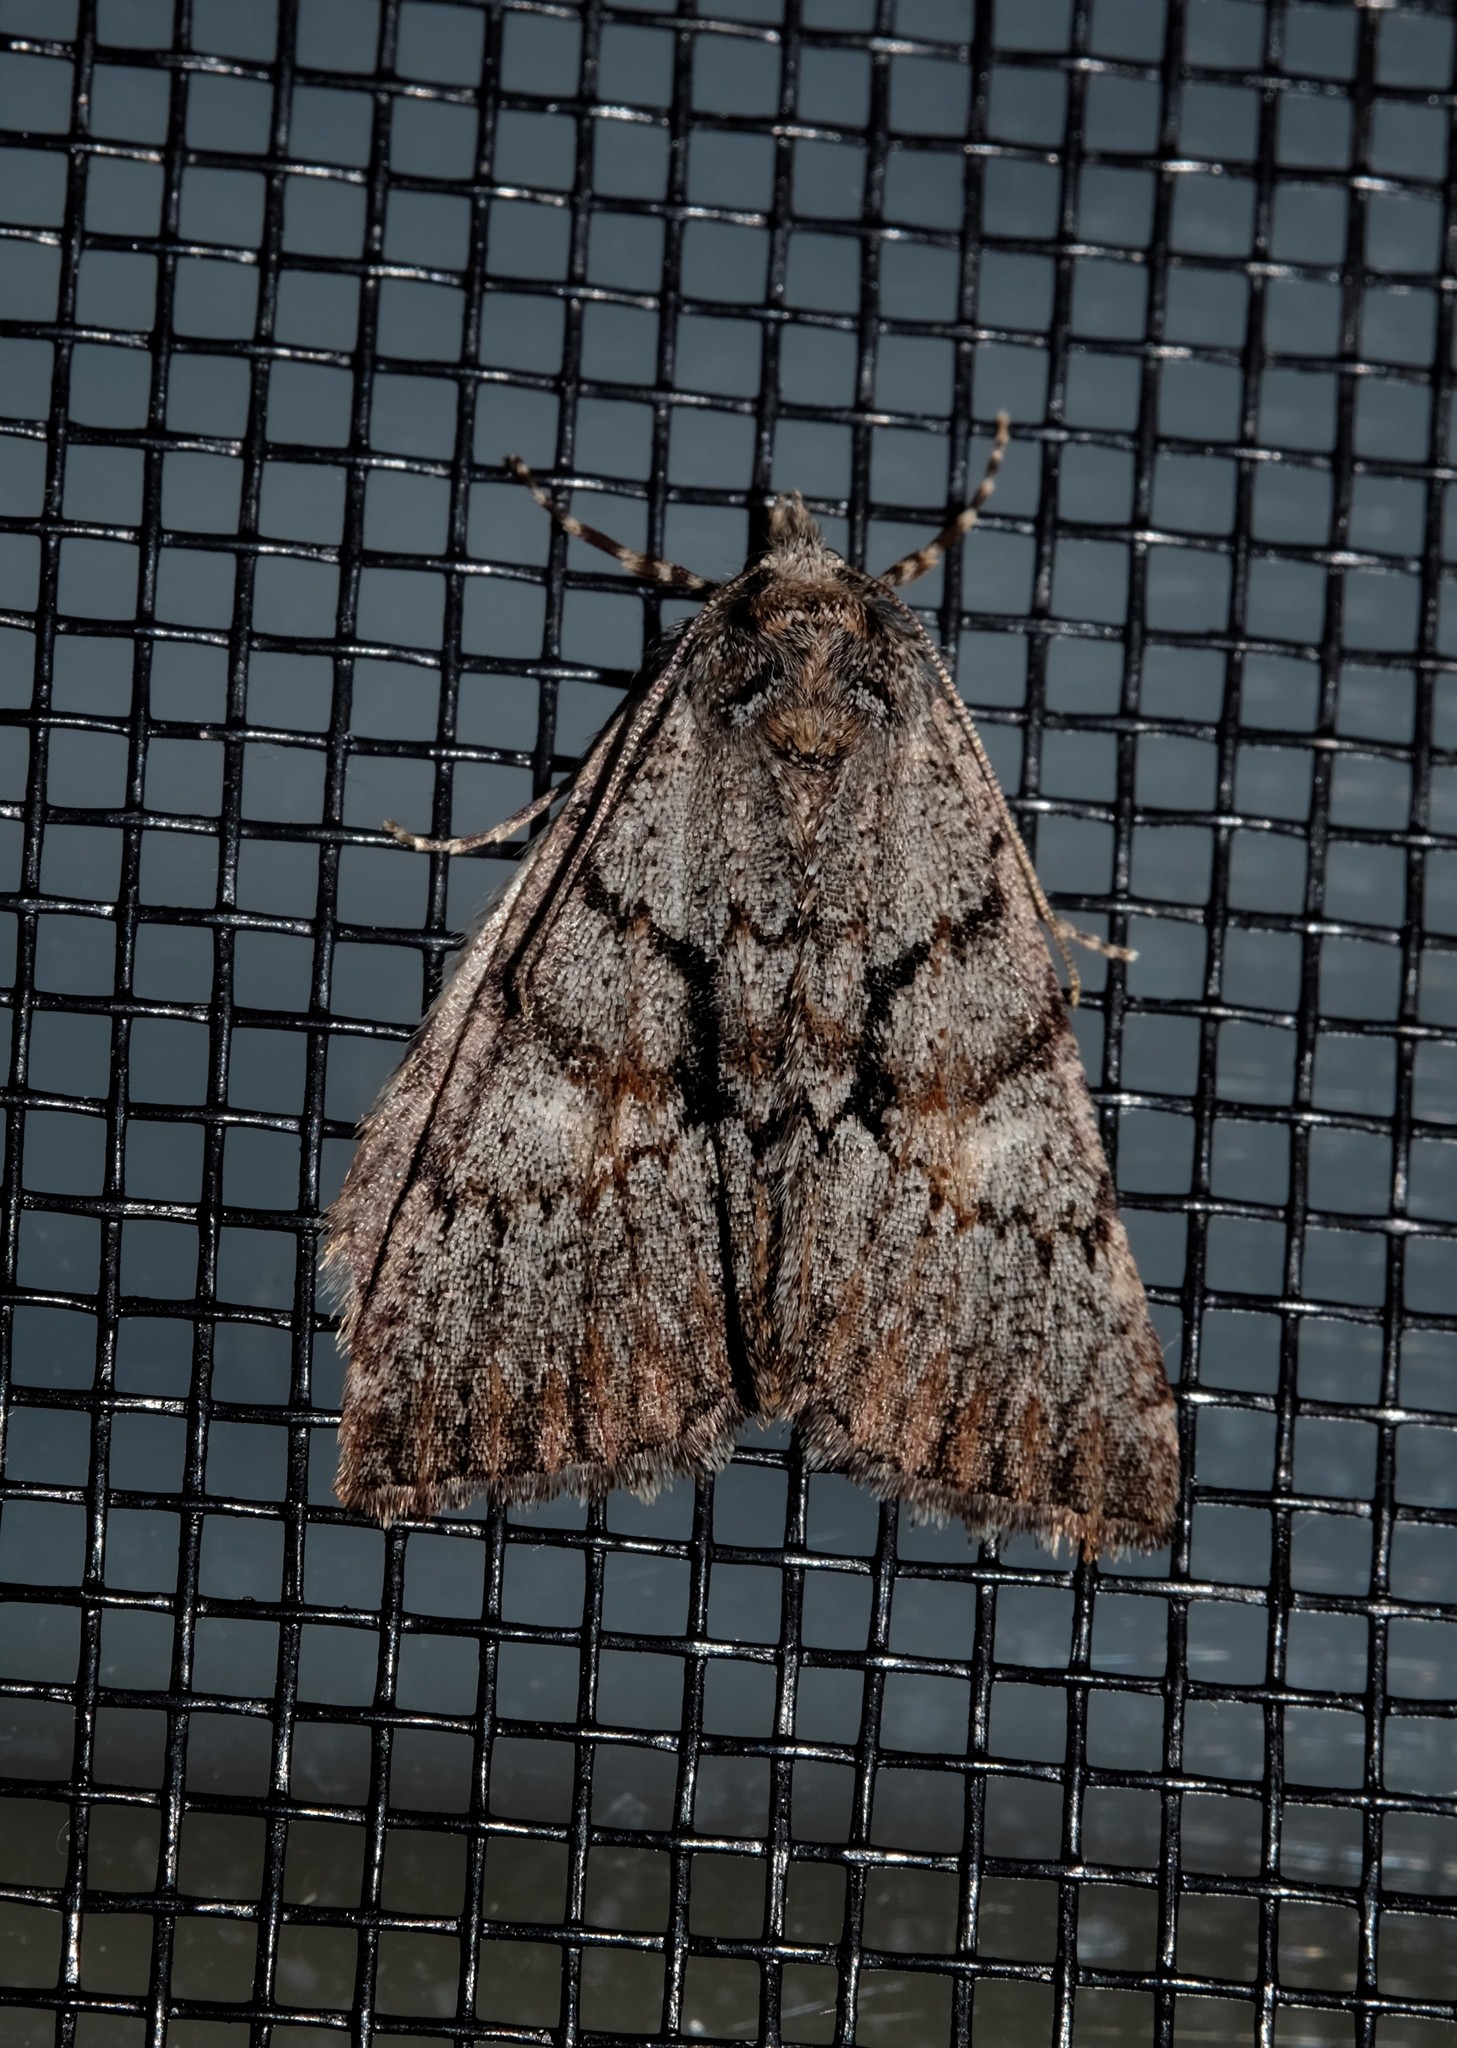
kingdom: Animalia
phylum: Arthropoda
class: Insecta
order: Lepidoptera
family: Geometridae
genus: Smyriodes
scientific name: Smyriodes
